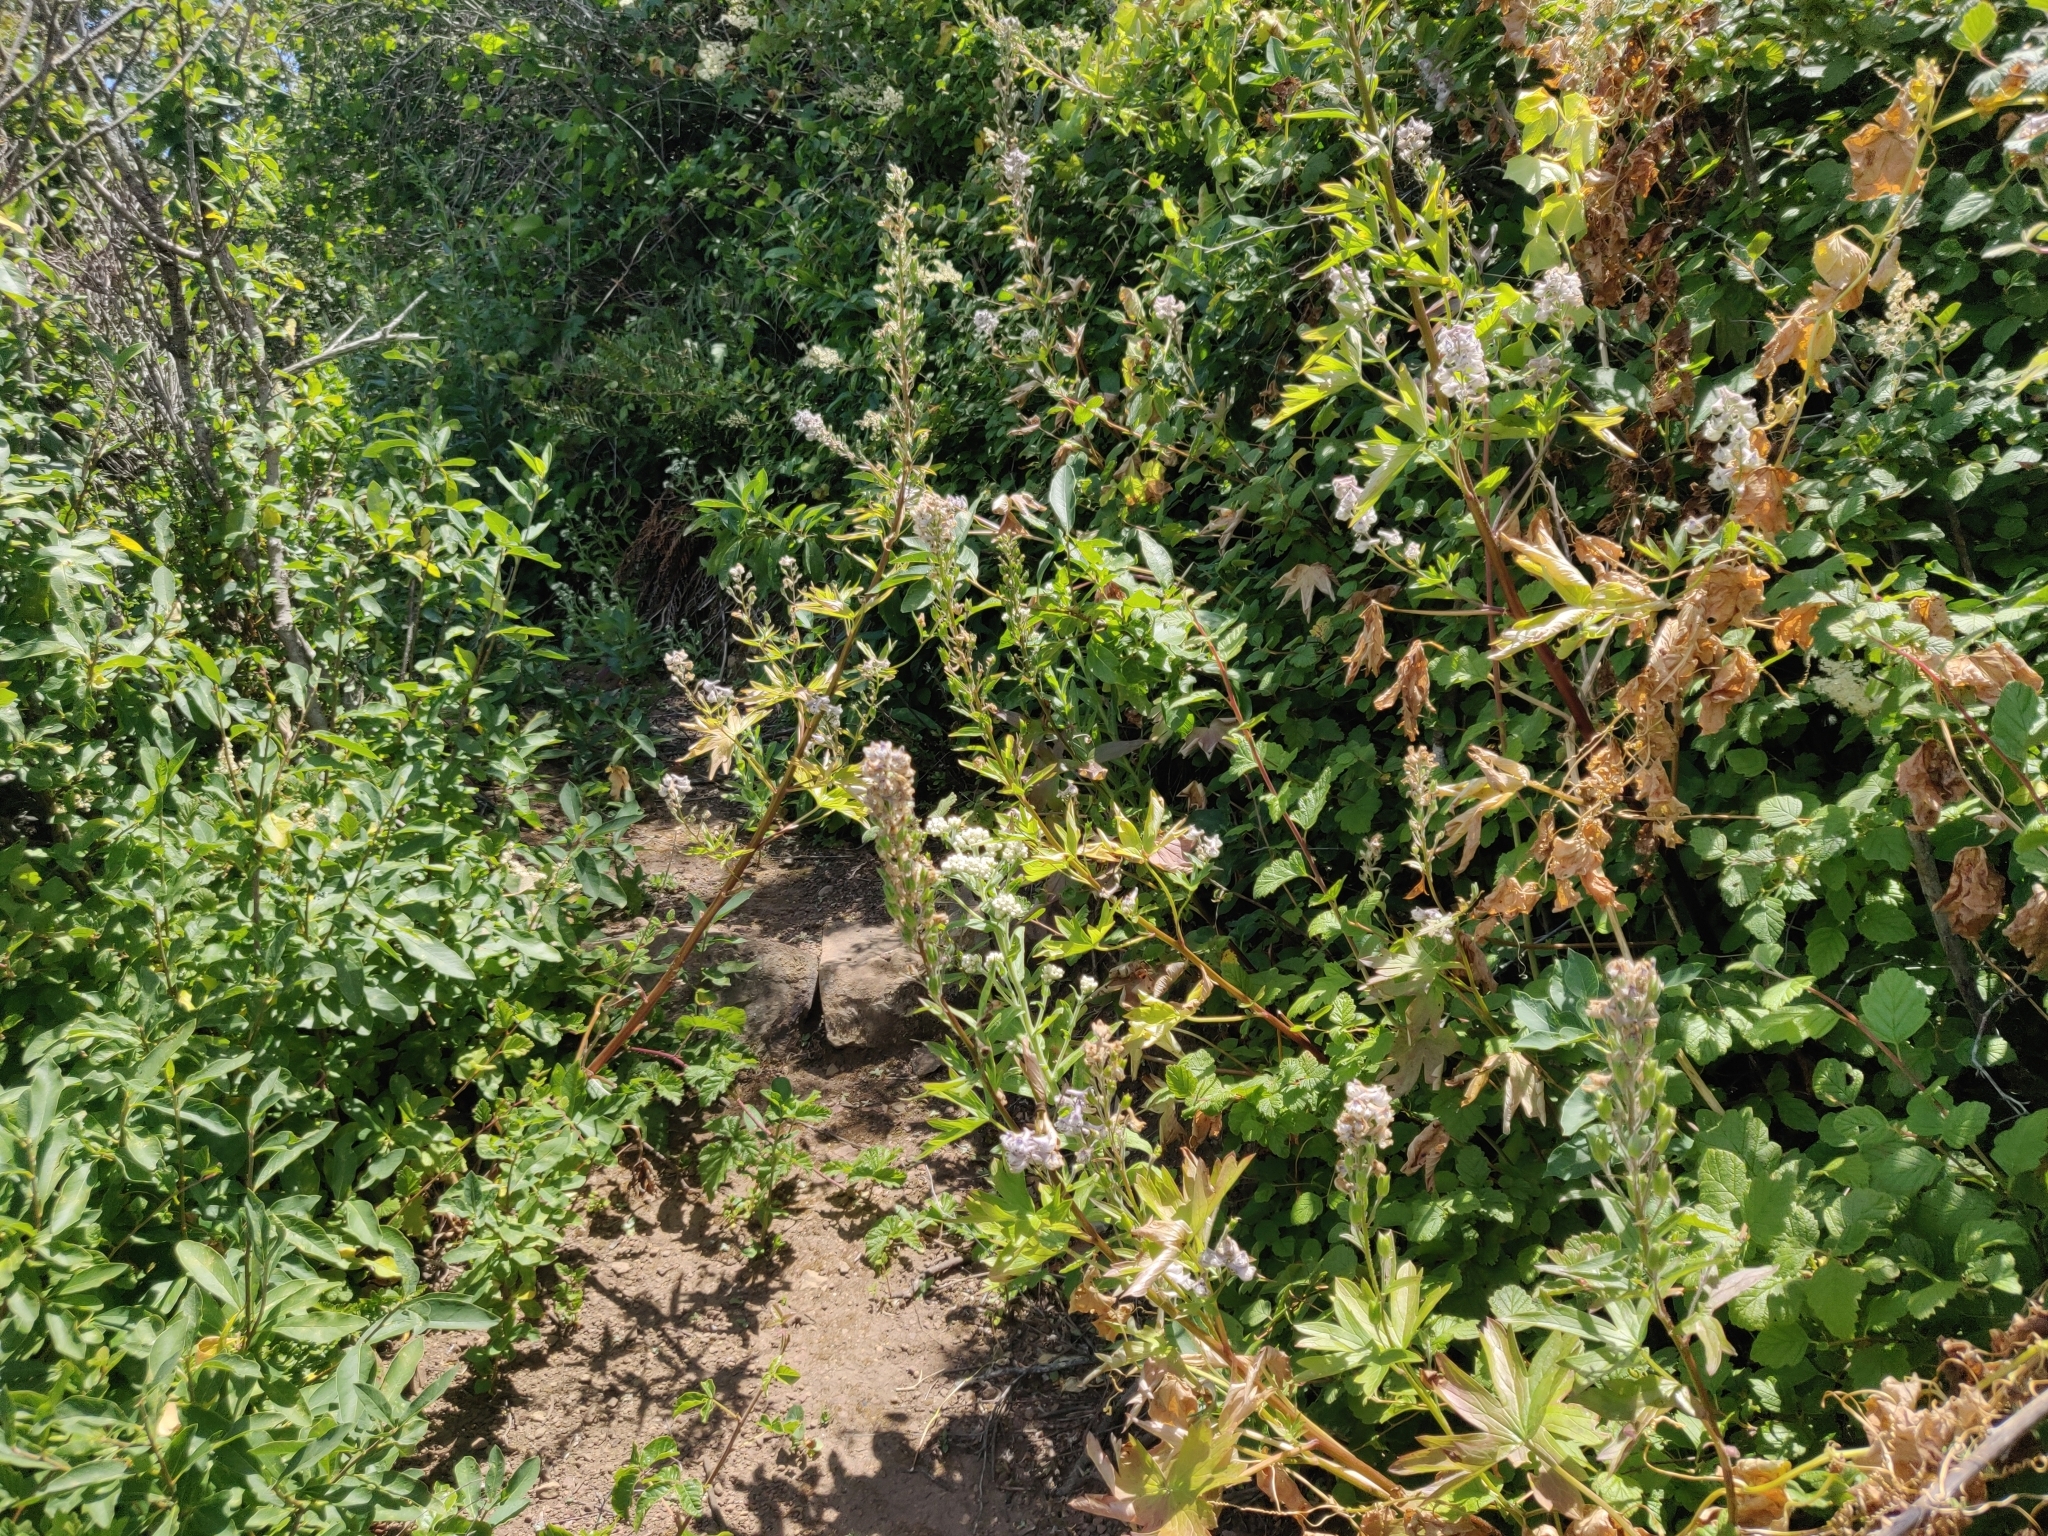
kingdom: Plantae
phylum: Tracheophyta
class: Magnoliopsida
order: Ranunculales
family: Ranunculaceae
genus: Delphinium
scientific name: Delphinium californicum
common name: California larkspur
